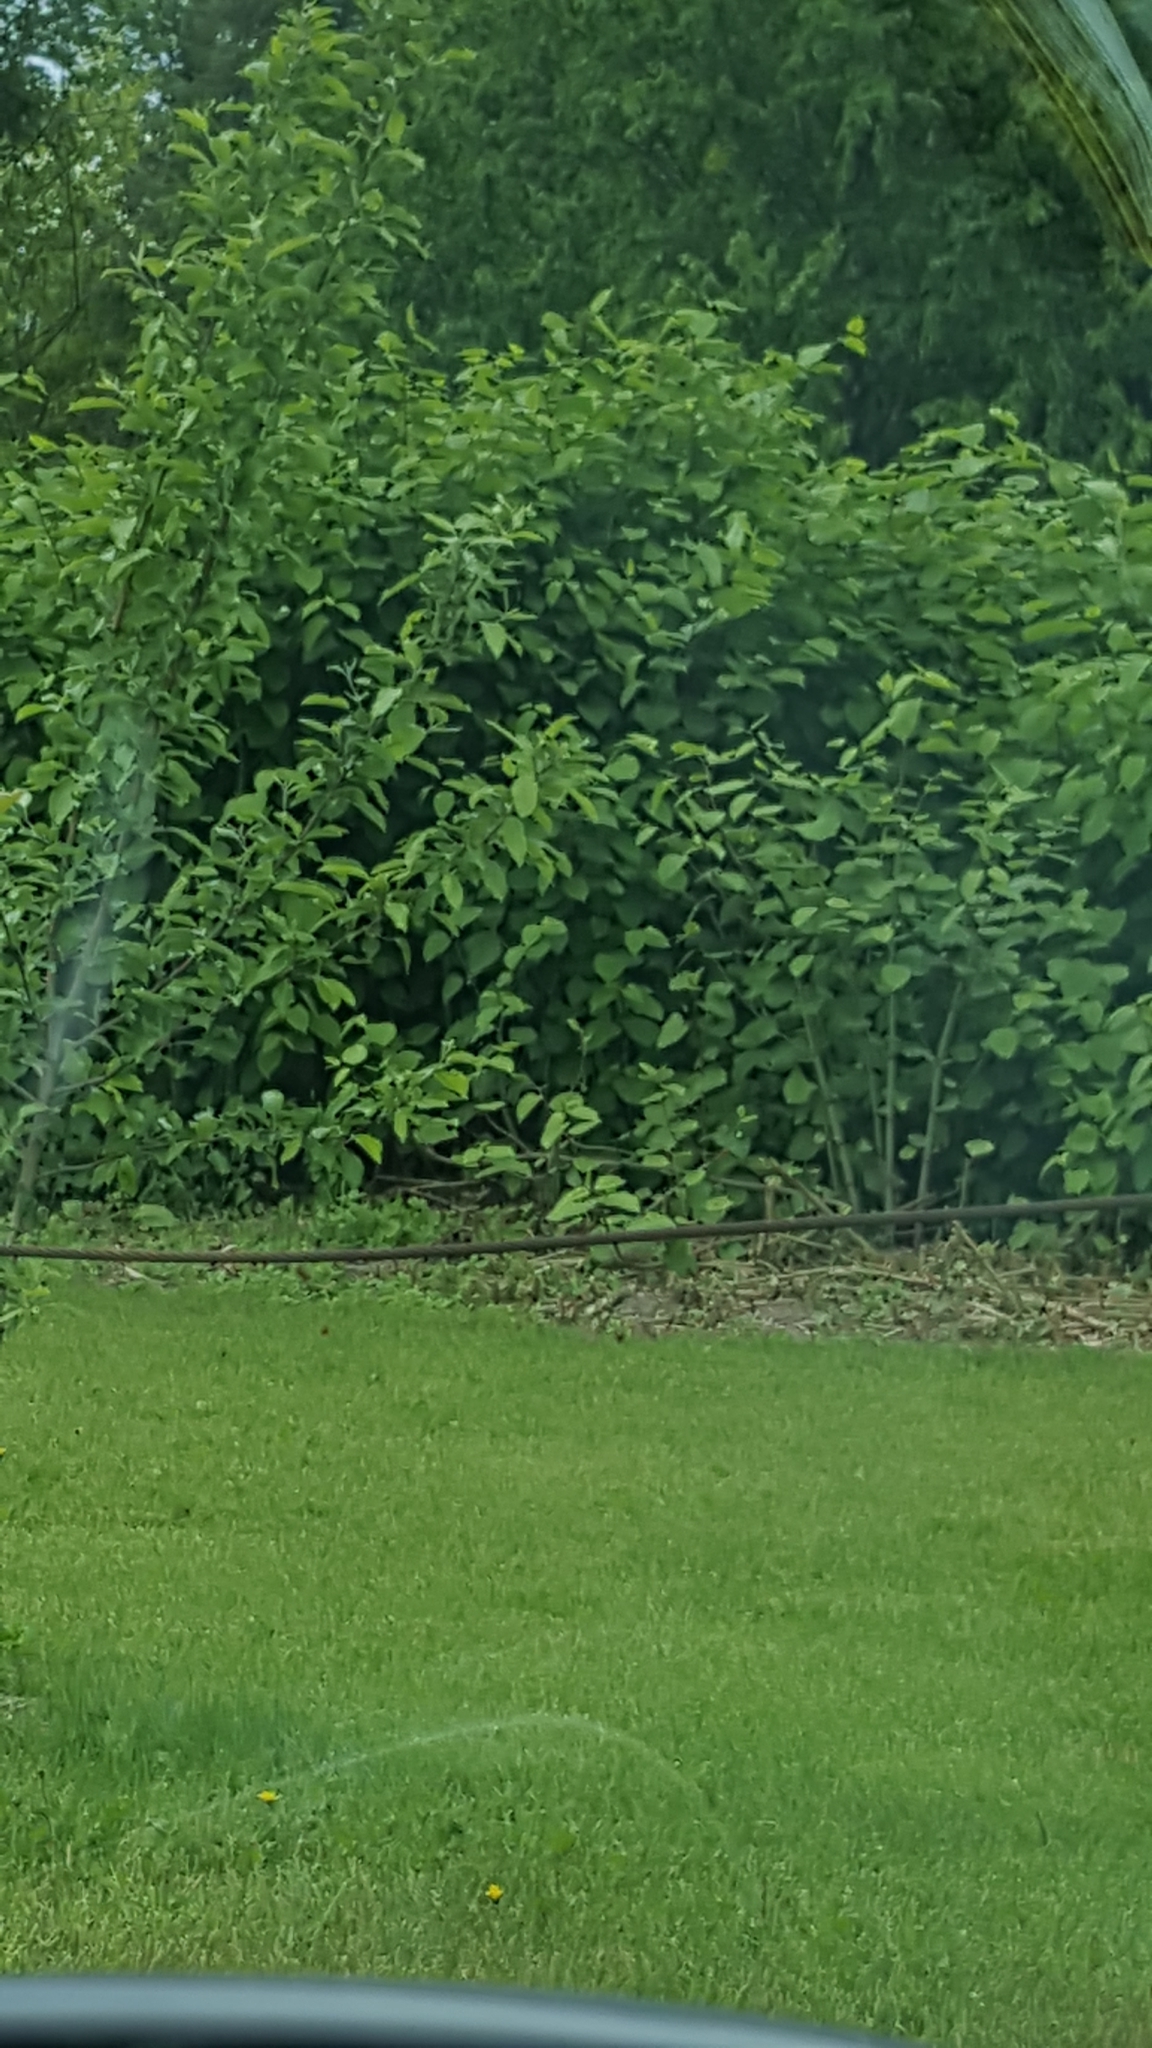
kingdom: Plantae
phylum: Tracheophyta
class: Magnoliopsida
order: Caryophyllales
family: Polygonaceae
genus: Reynoutria
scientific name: Reynoutria japonica
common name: Japanese knotweed
